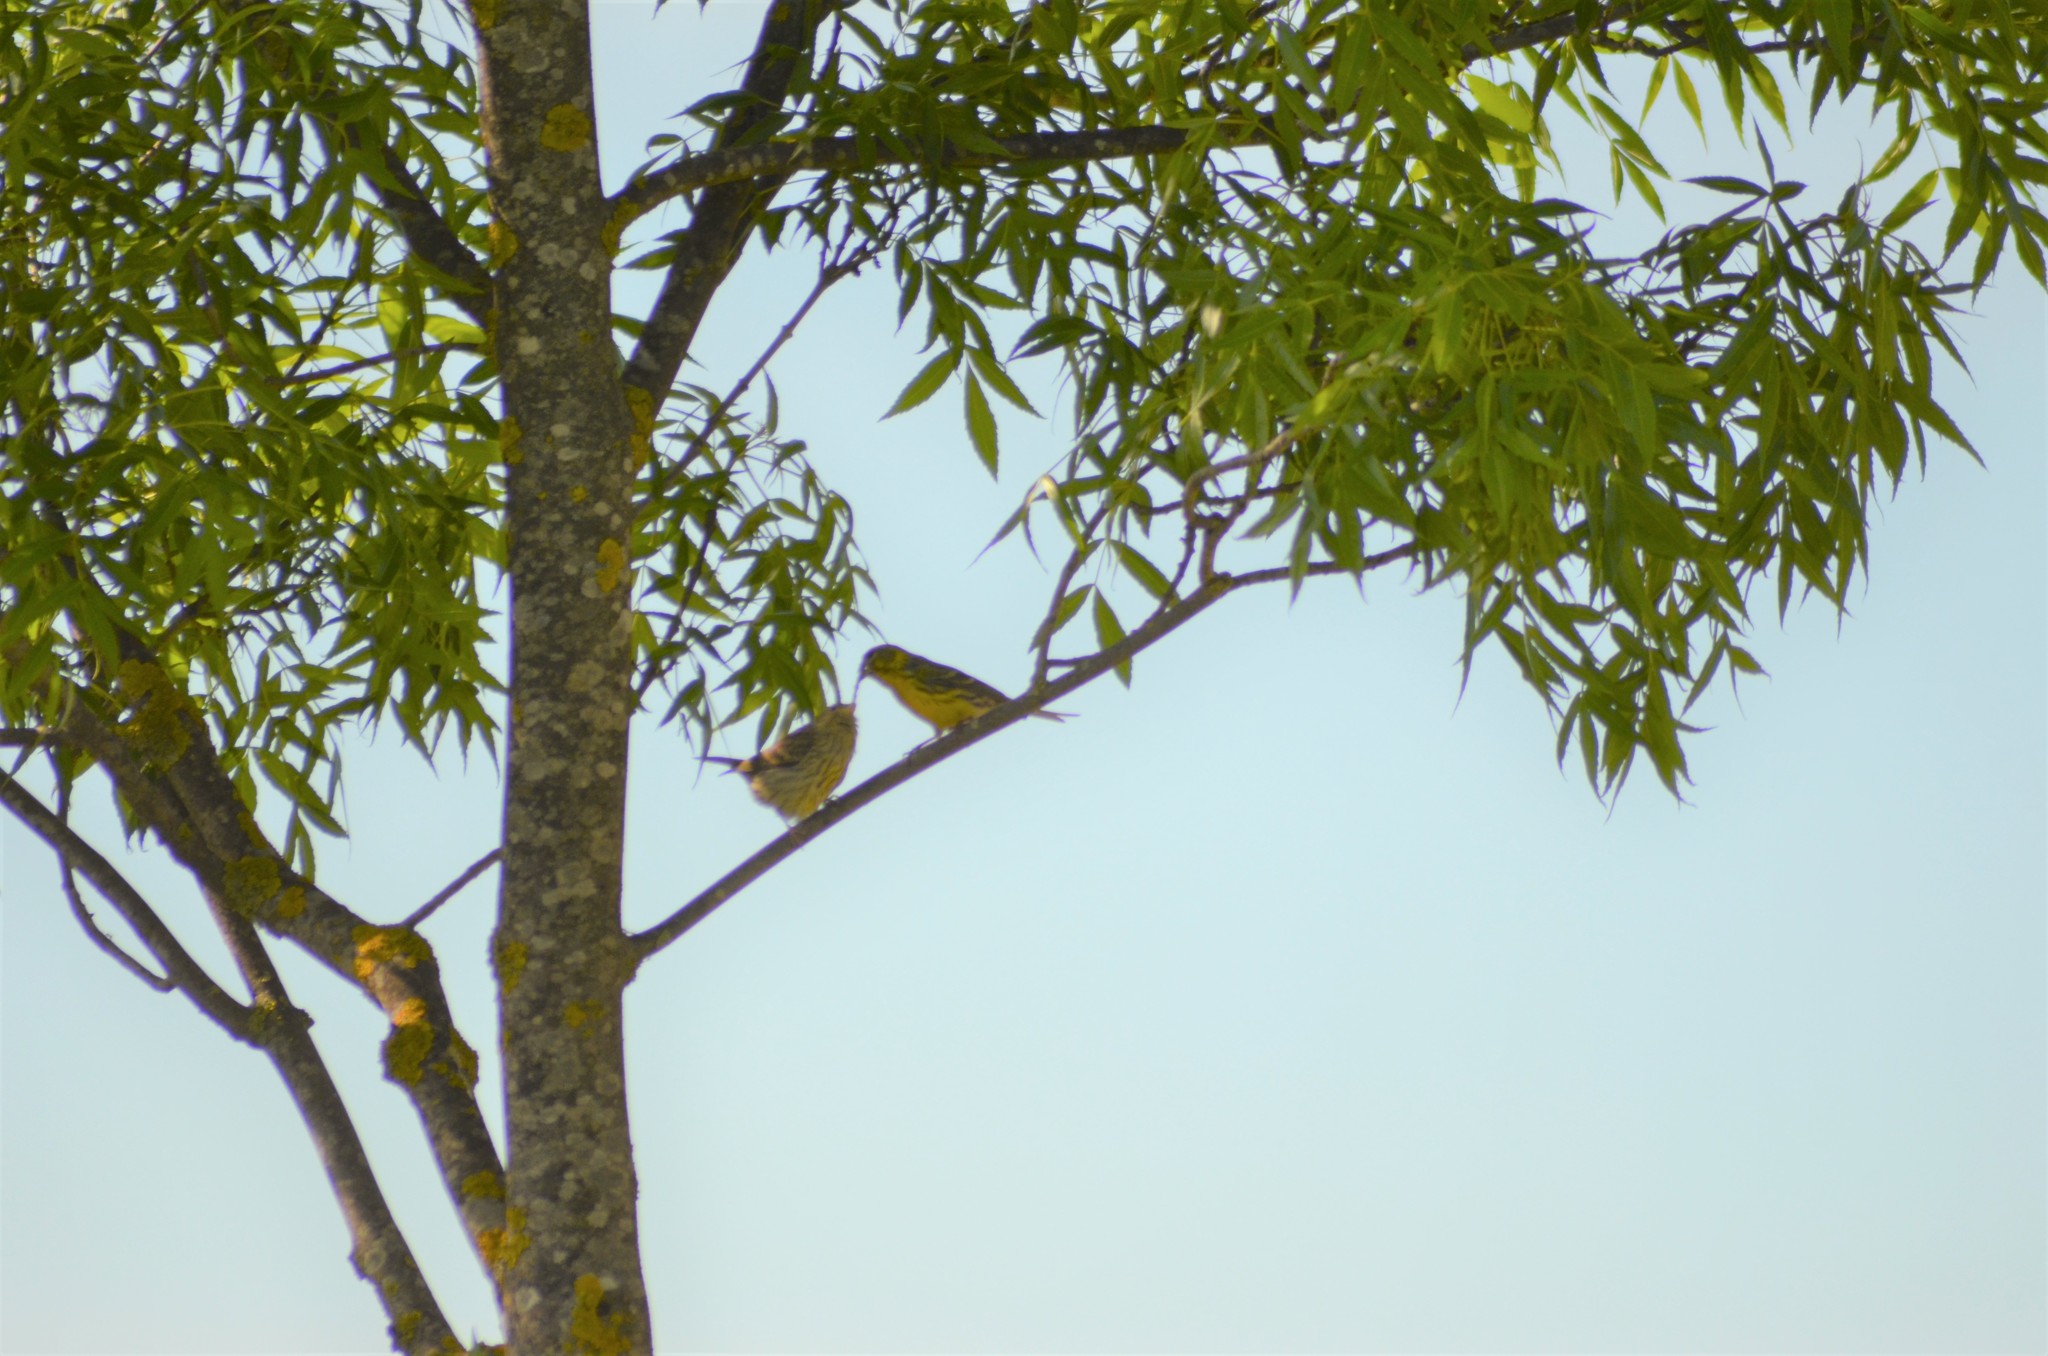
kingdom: Animalia
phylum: Chordata
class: Aves
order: Passeriformes
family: Fringillidae
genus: Serinus
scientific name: Serinus serinus
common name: European serin
